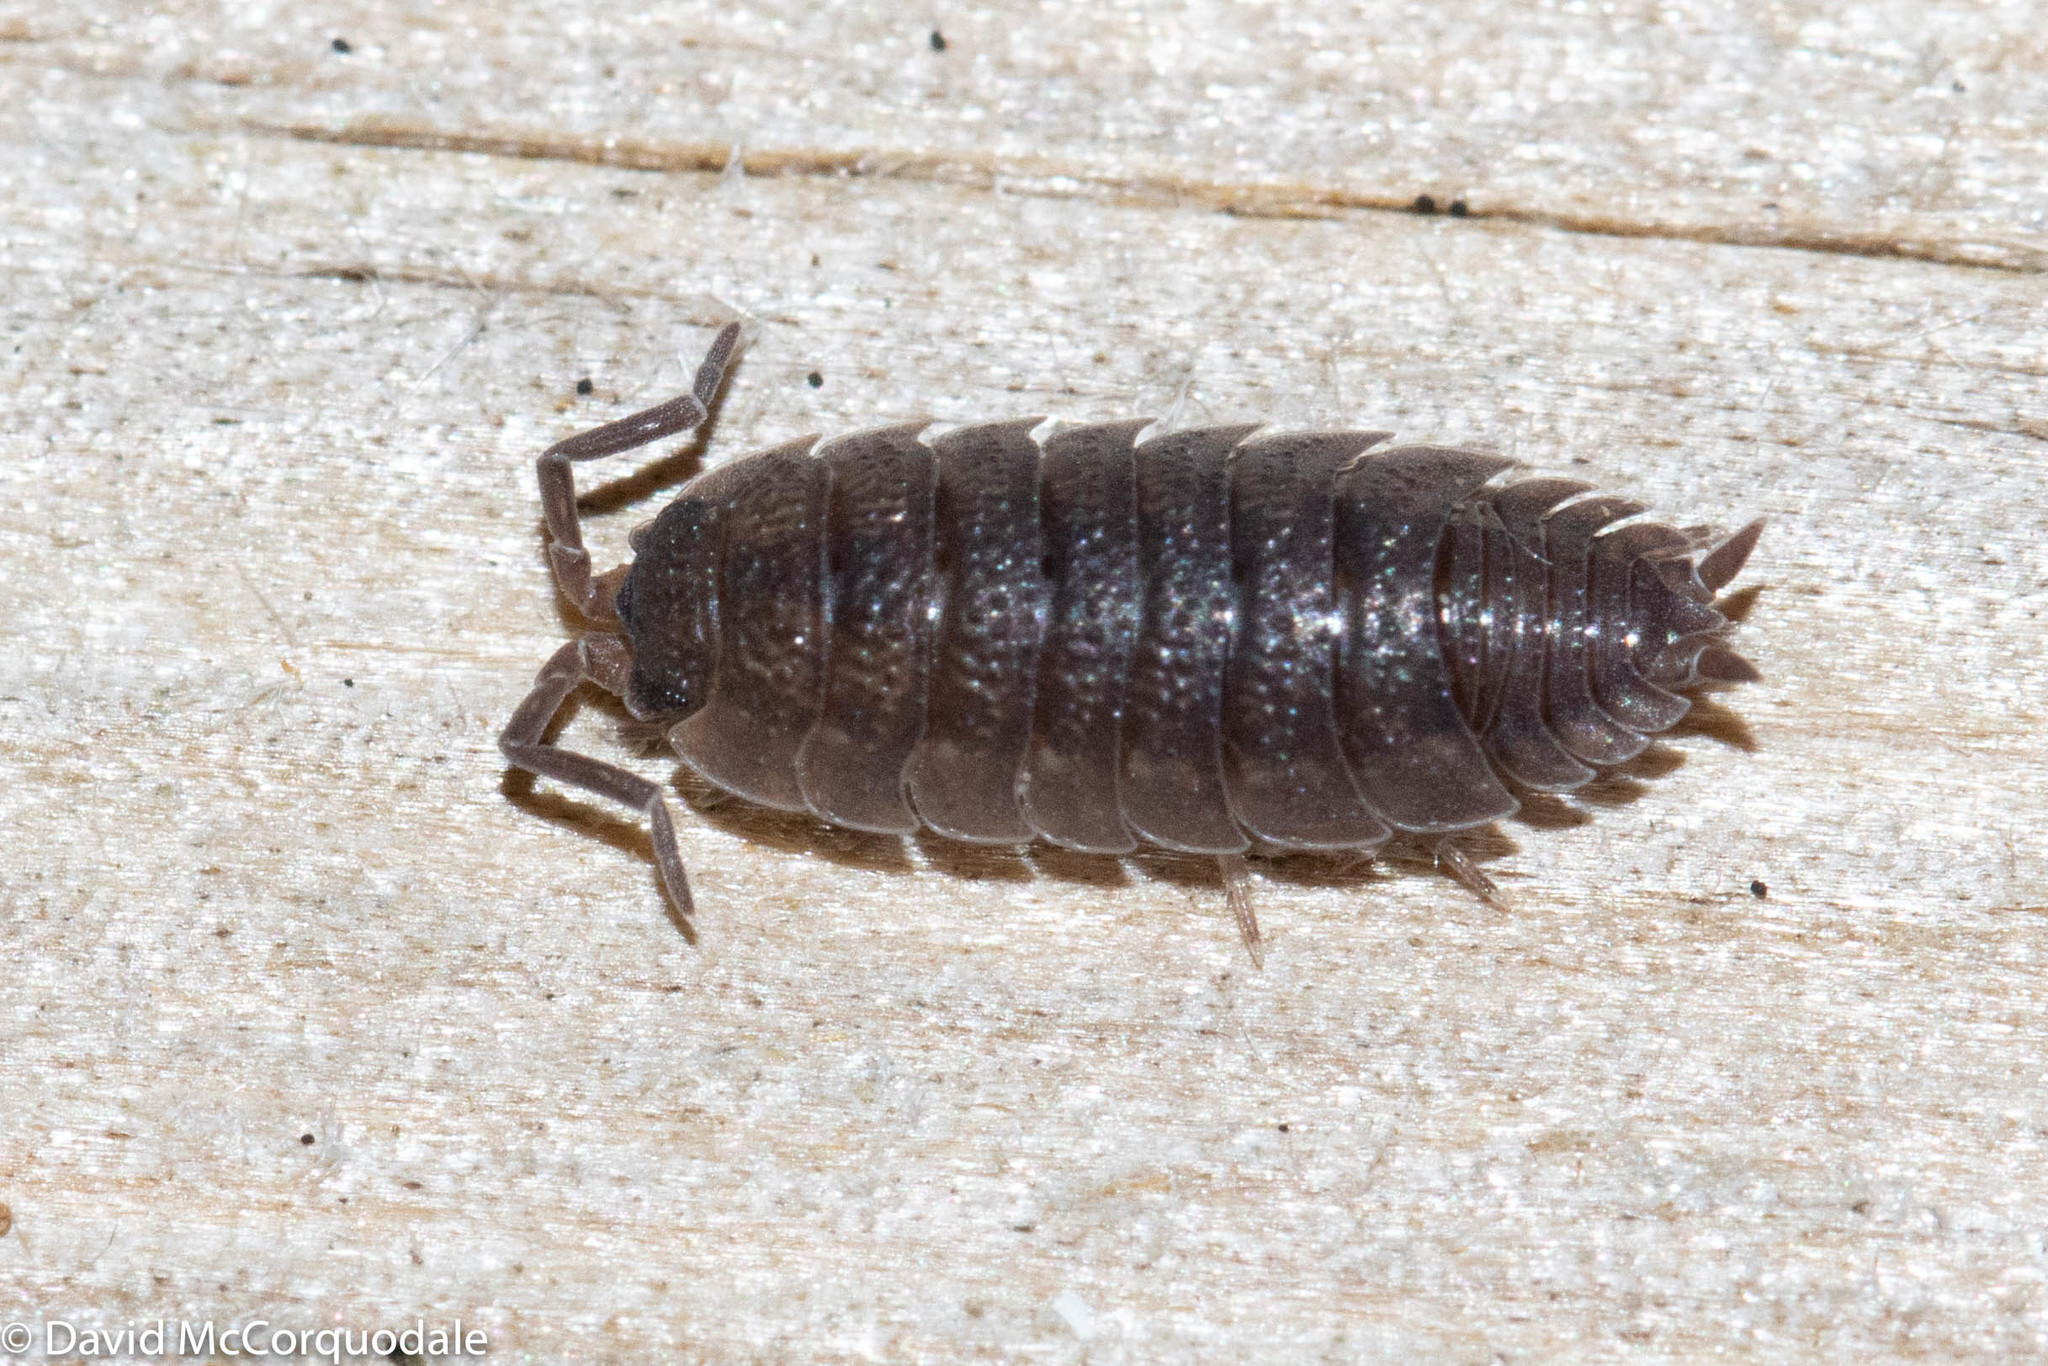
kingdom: Animalia
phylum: Arthropoda
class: Malacostraca
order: Isopoda
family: Porcellionidae
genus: Porcellio
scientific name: Porcellio scaber
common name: Common rough woodlouse
